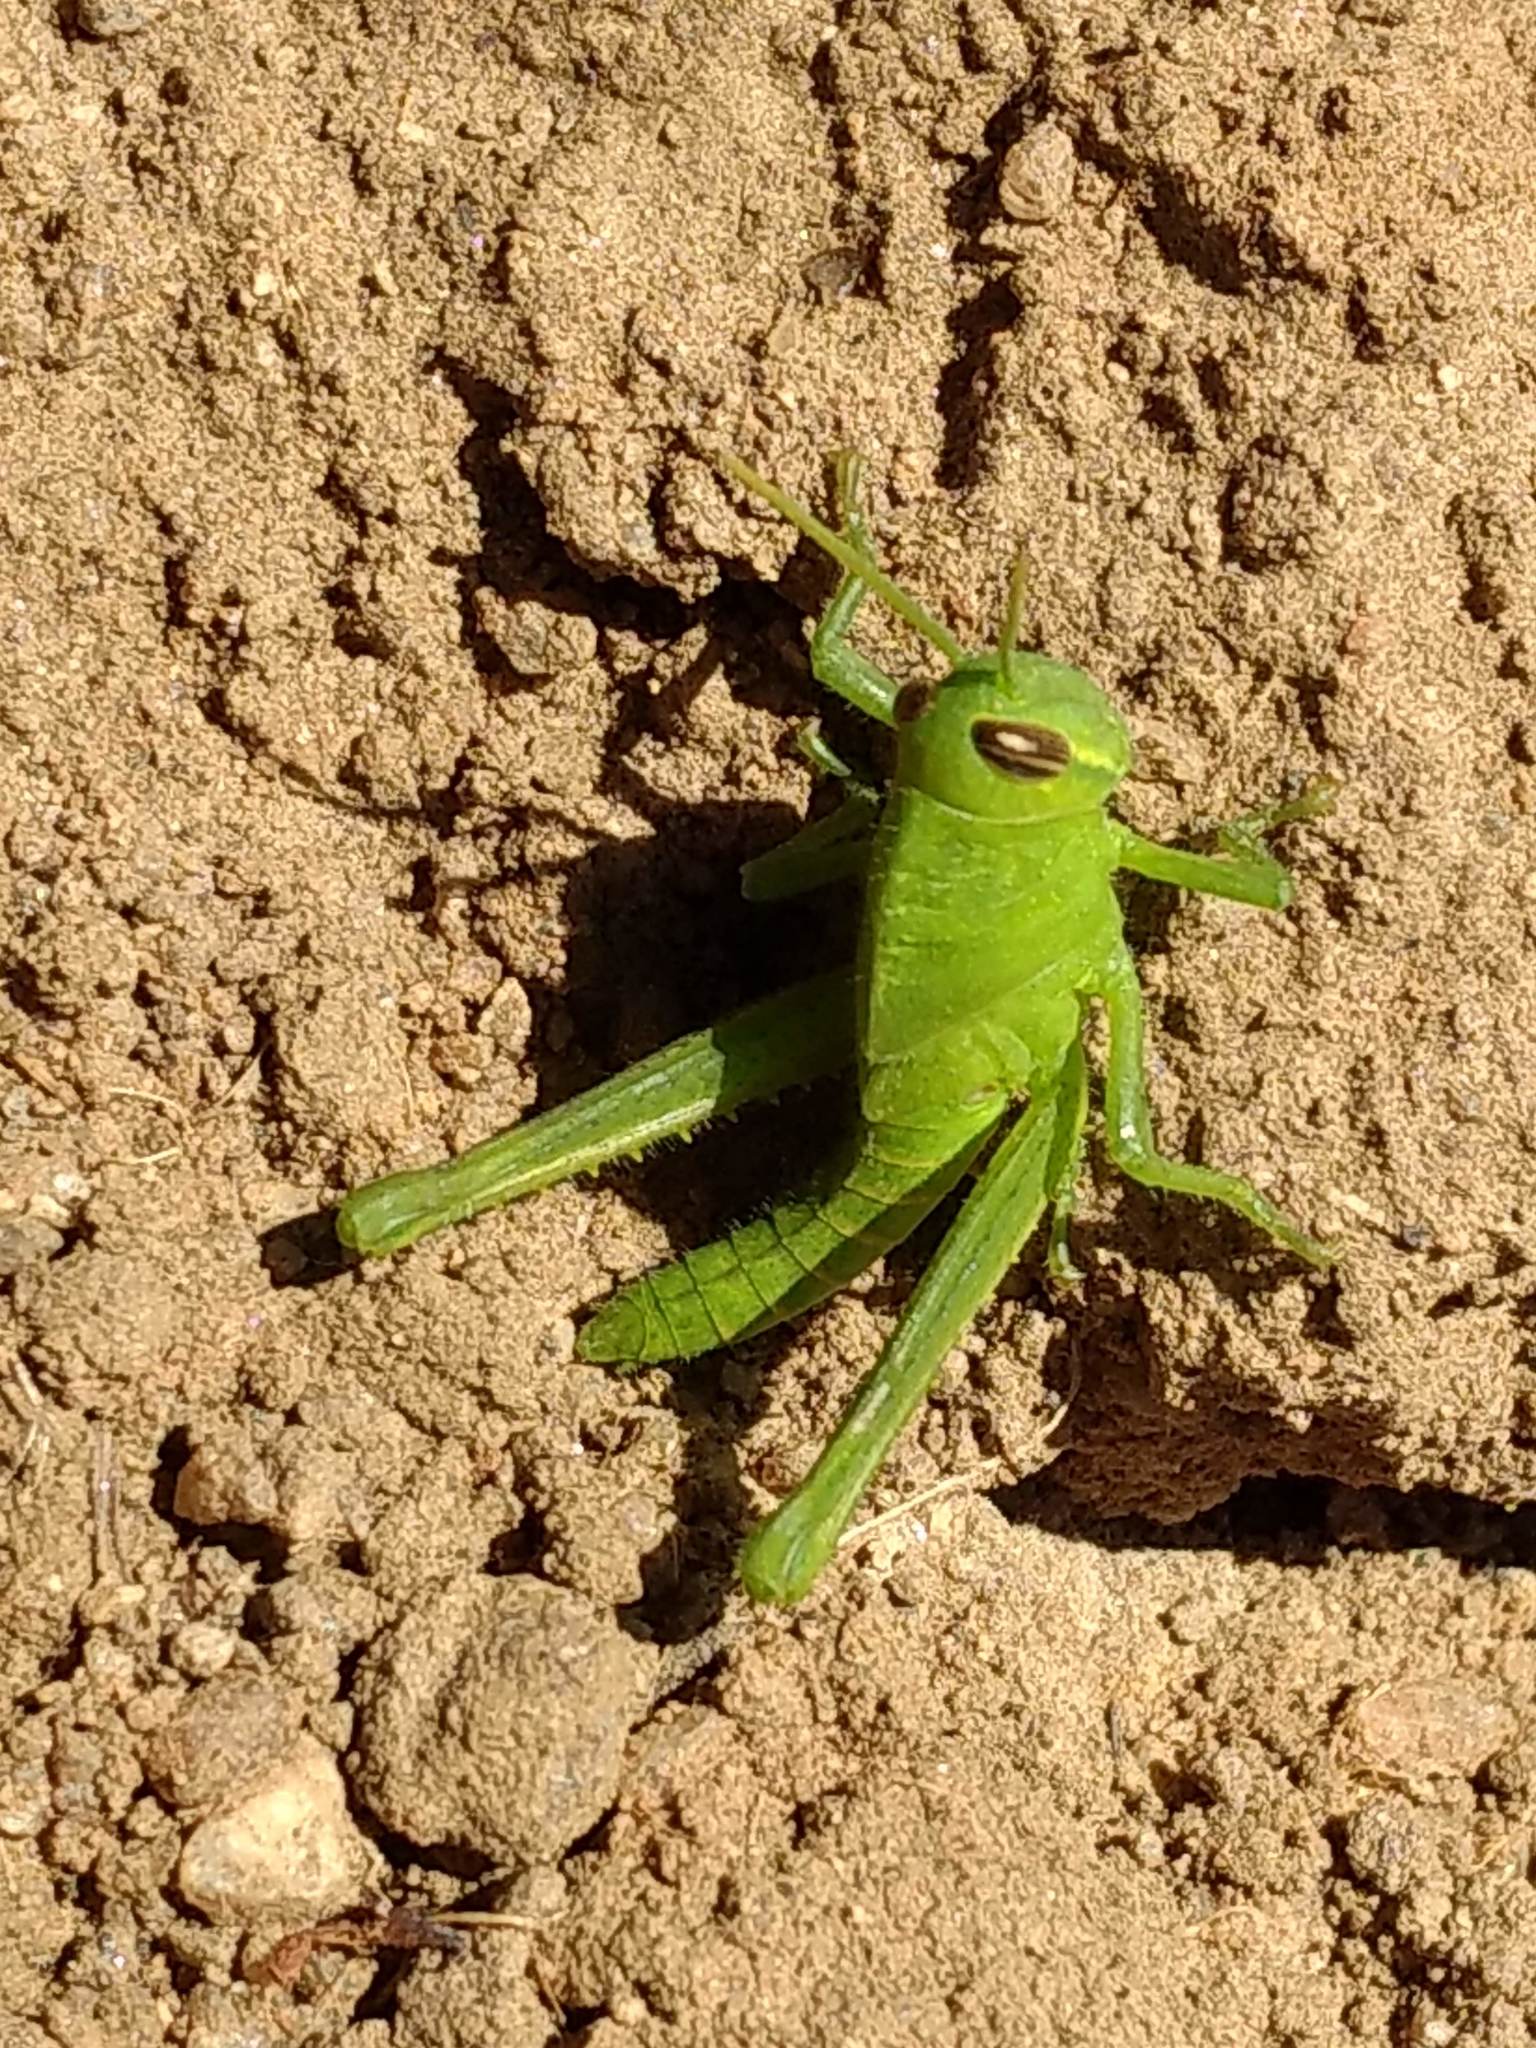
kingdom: Animalia
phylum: Arthropoda
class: Insecta
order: Orthoptera
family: Acrididae
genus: Schistocerca
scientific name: Schistocerca nitens
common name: Vagrant grasshopper
